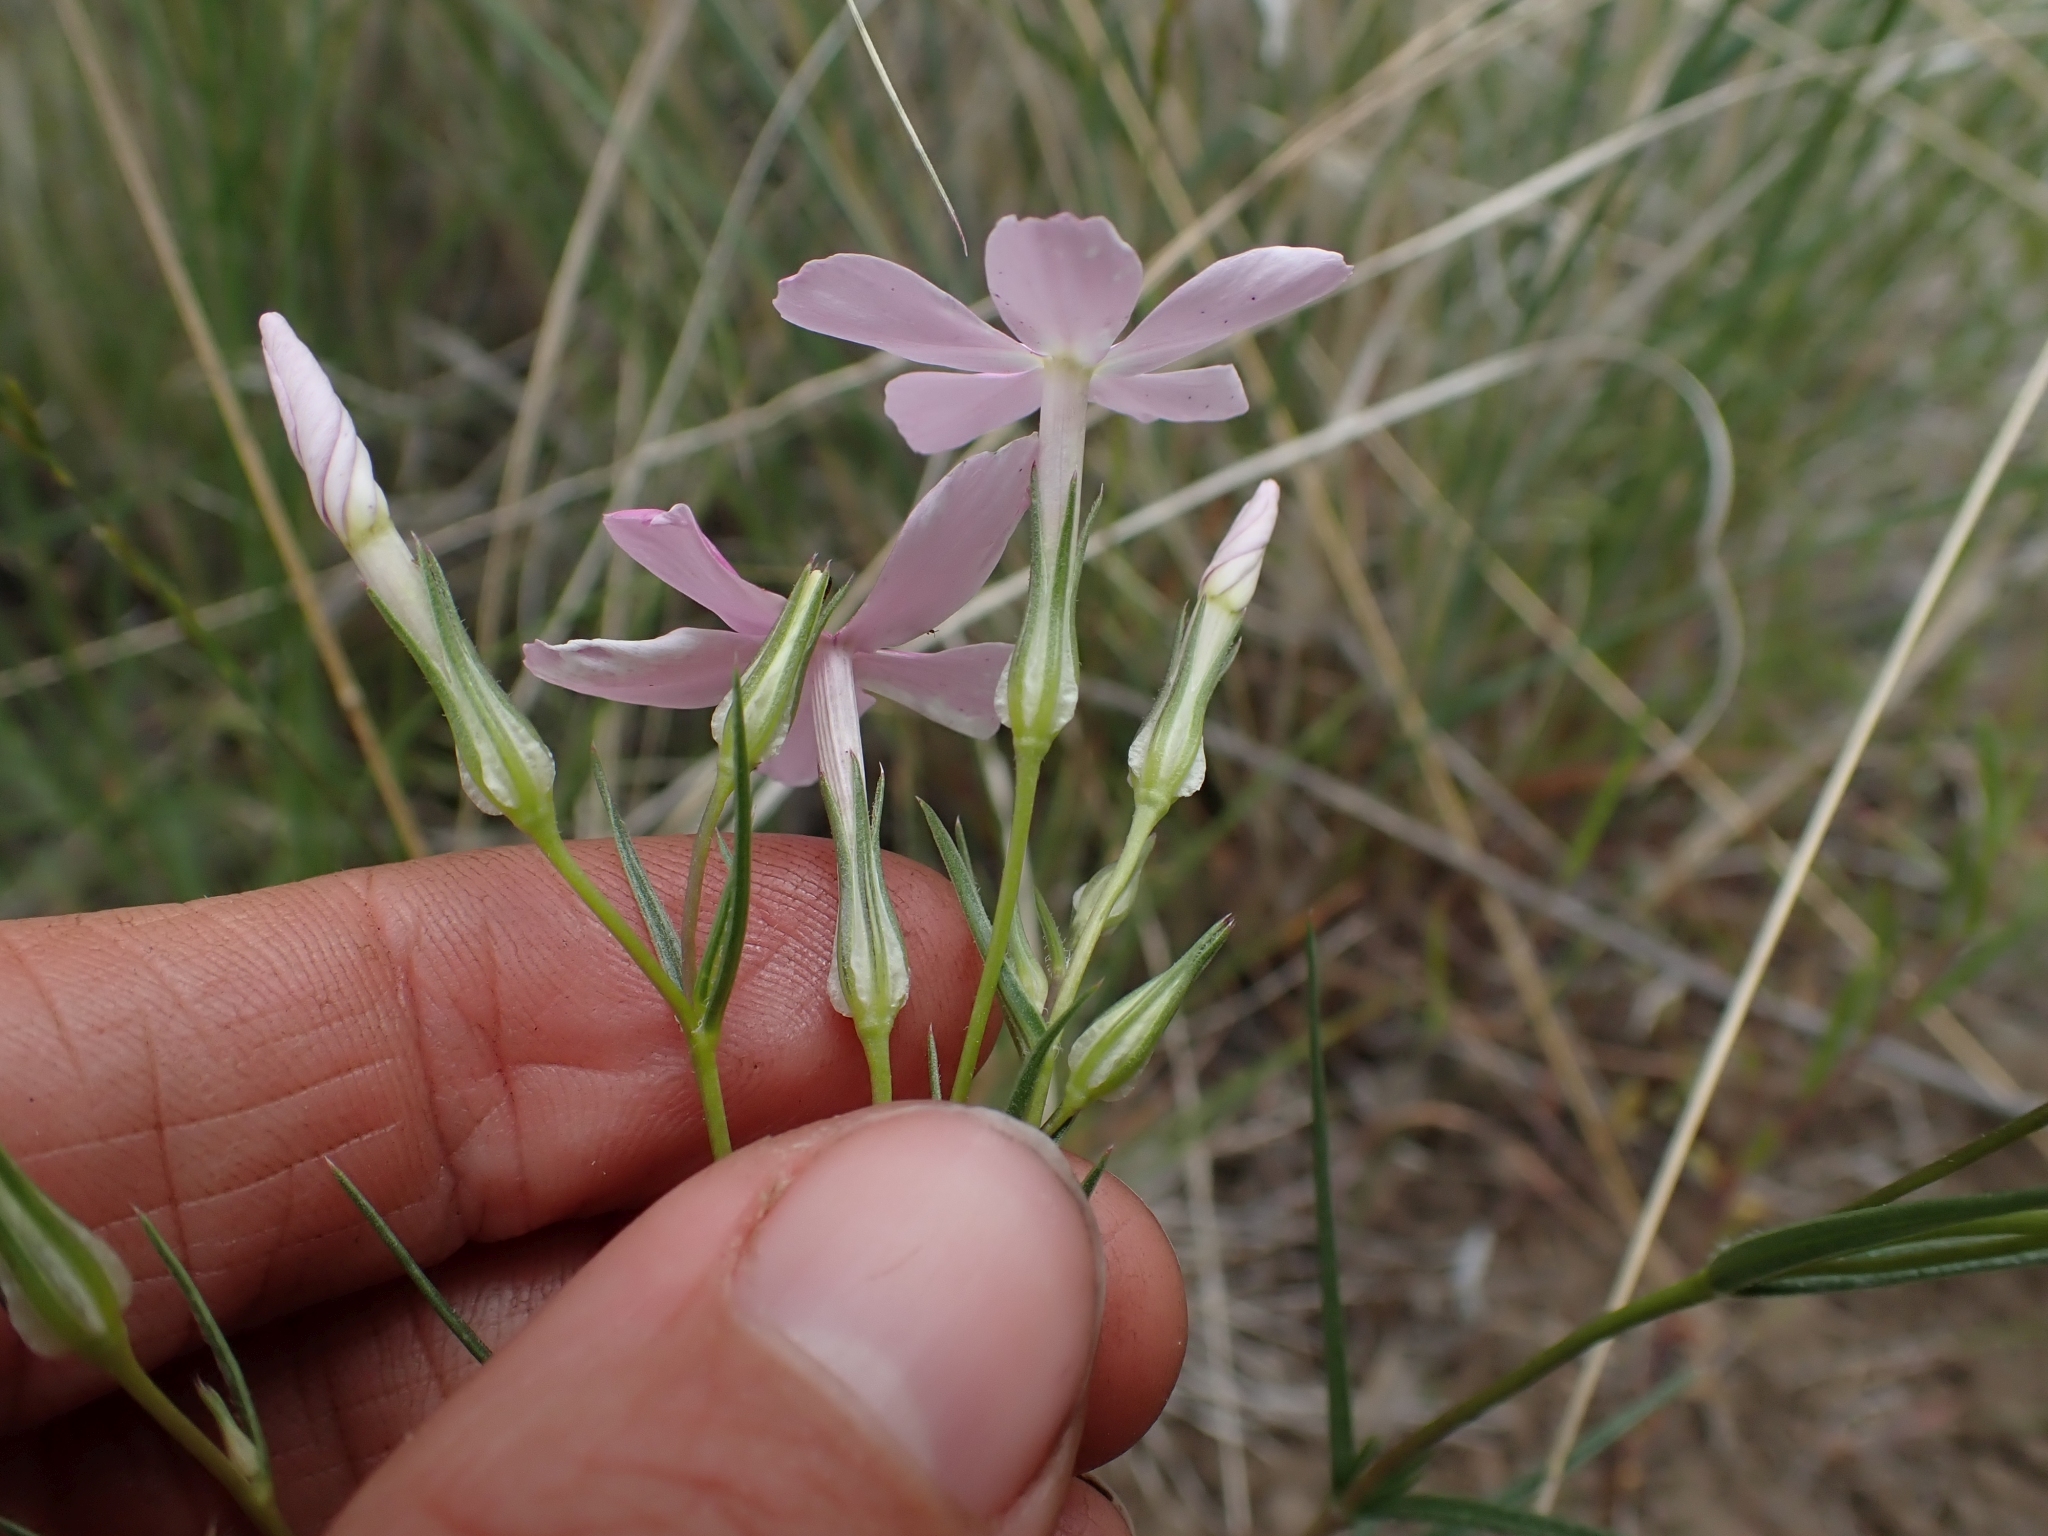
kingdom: Plantae
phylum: Tracheophyta
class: Magnoliopsida
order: Ericales
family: Polemoniaceae
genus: Phlox
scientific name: Phlox longifolia
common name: Longleaf phlox
